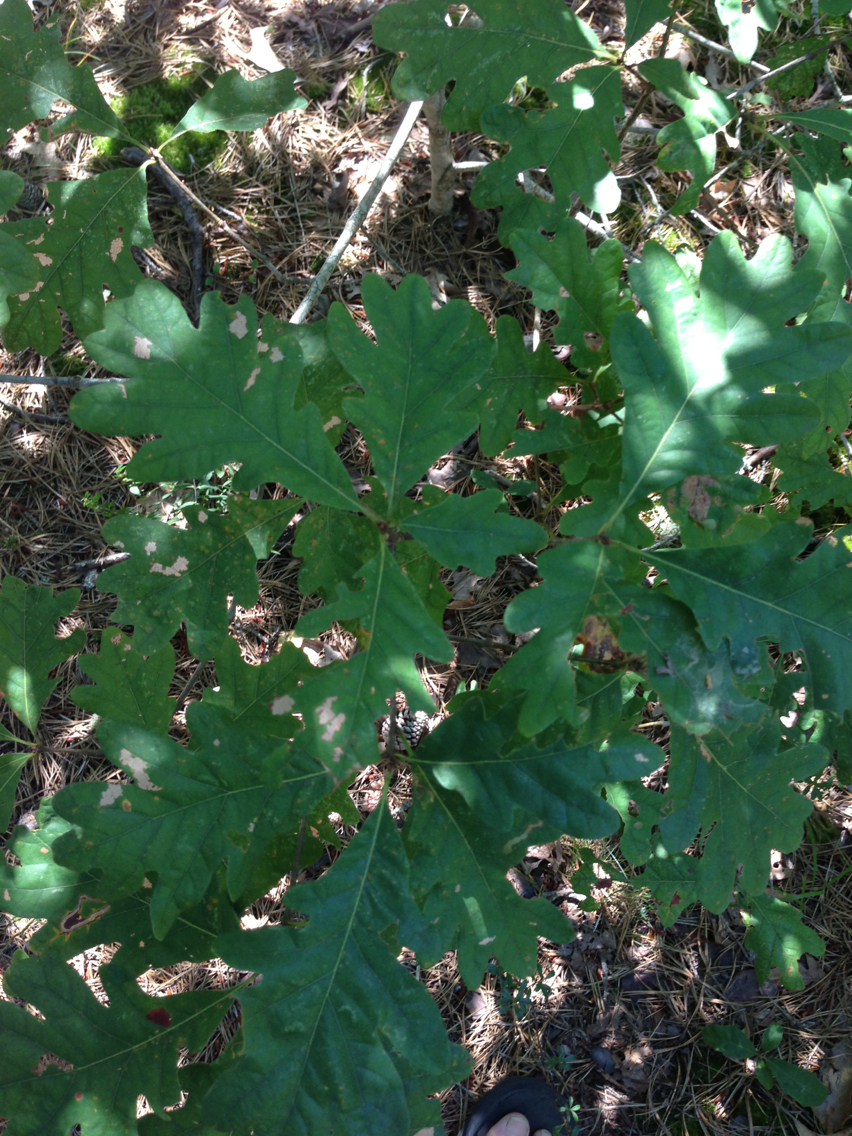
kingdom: Plantae
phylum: Tracheophyta
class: Magnoliopsida
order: Fagales
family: Fagaceae
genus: Quercus
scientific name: Quercus alba
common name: White oak
